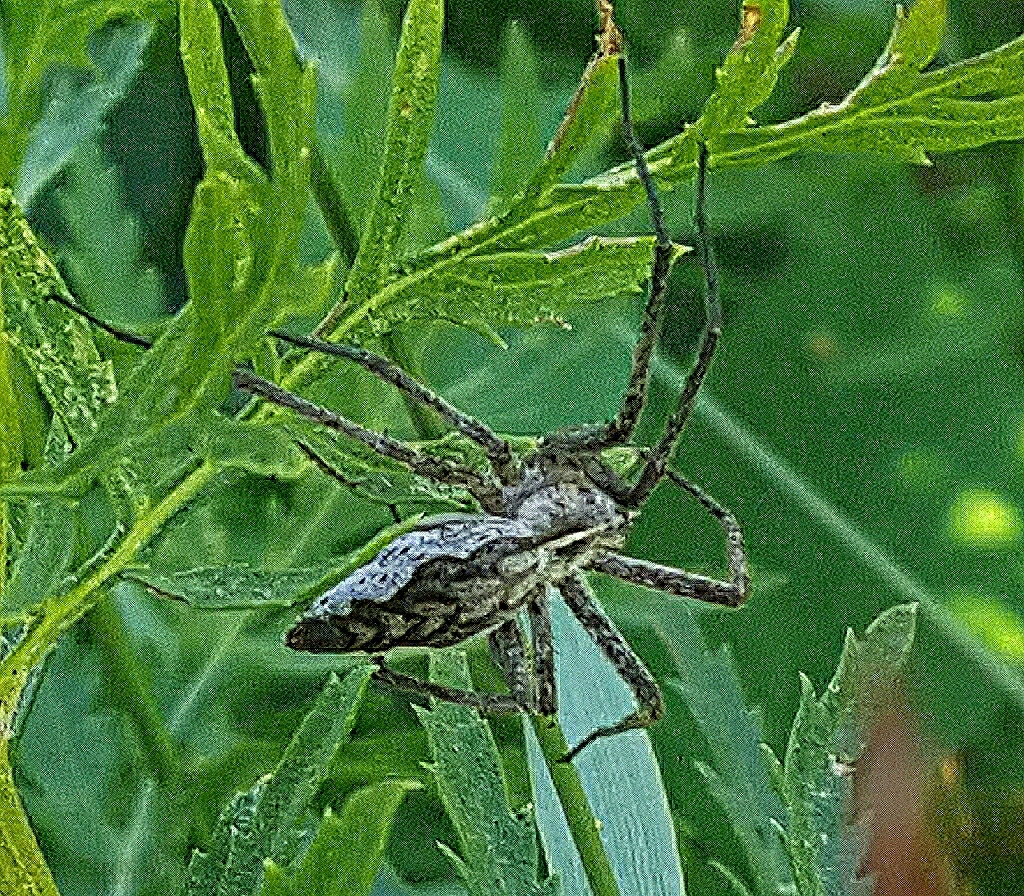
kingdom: Animalia
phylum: Arthropoda
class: Arachnida
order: Araneae
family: Pisauridae
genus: Pisaura
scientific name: Pisaura mirabilis
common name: Tent spider
